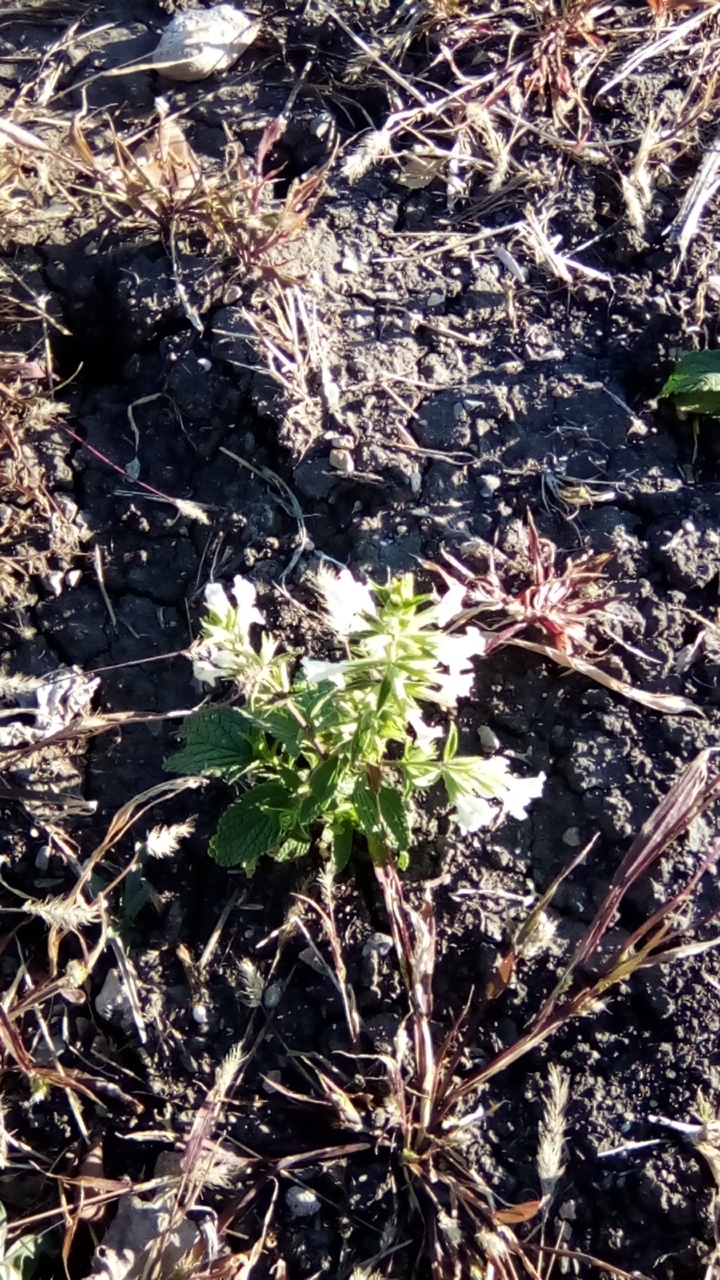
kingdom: Plantae
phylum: Tracheophyta
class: Magnoliopsida
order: Lamiales
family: Lamiaceae
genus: Stachys
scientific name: Stachys annua
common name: Annual yellow-woundwort
